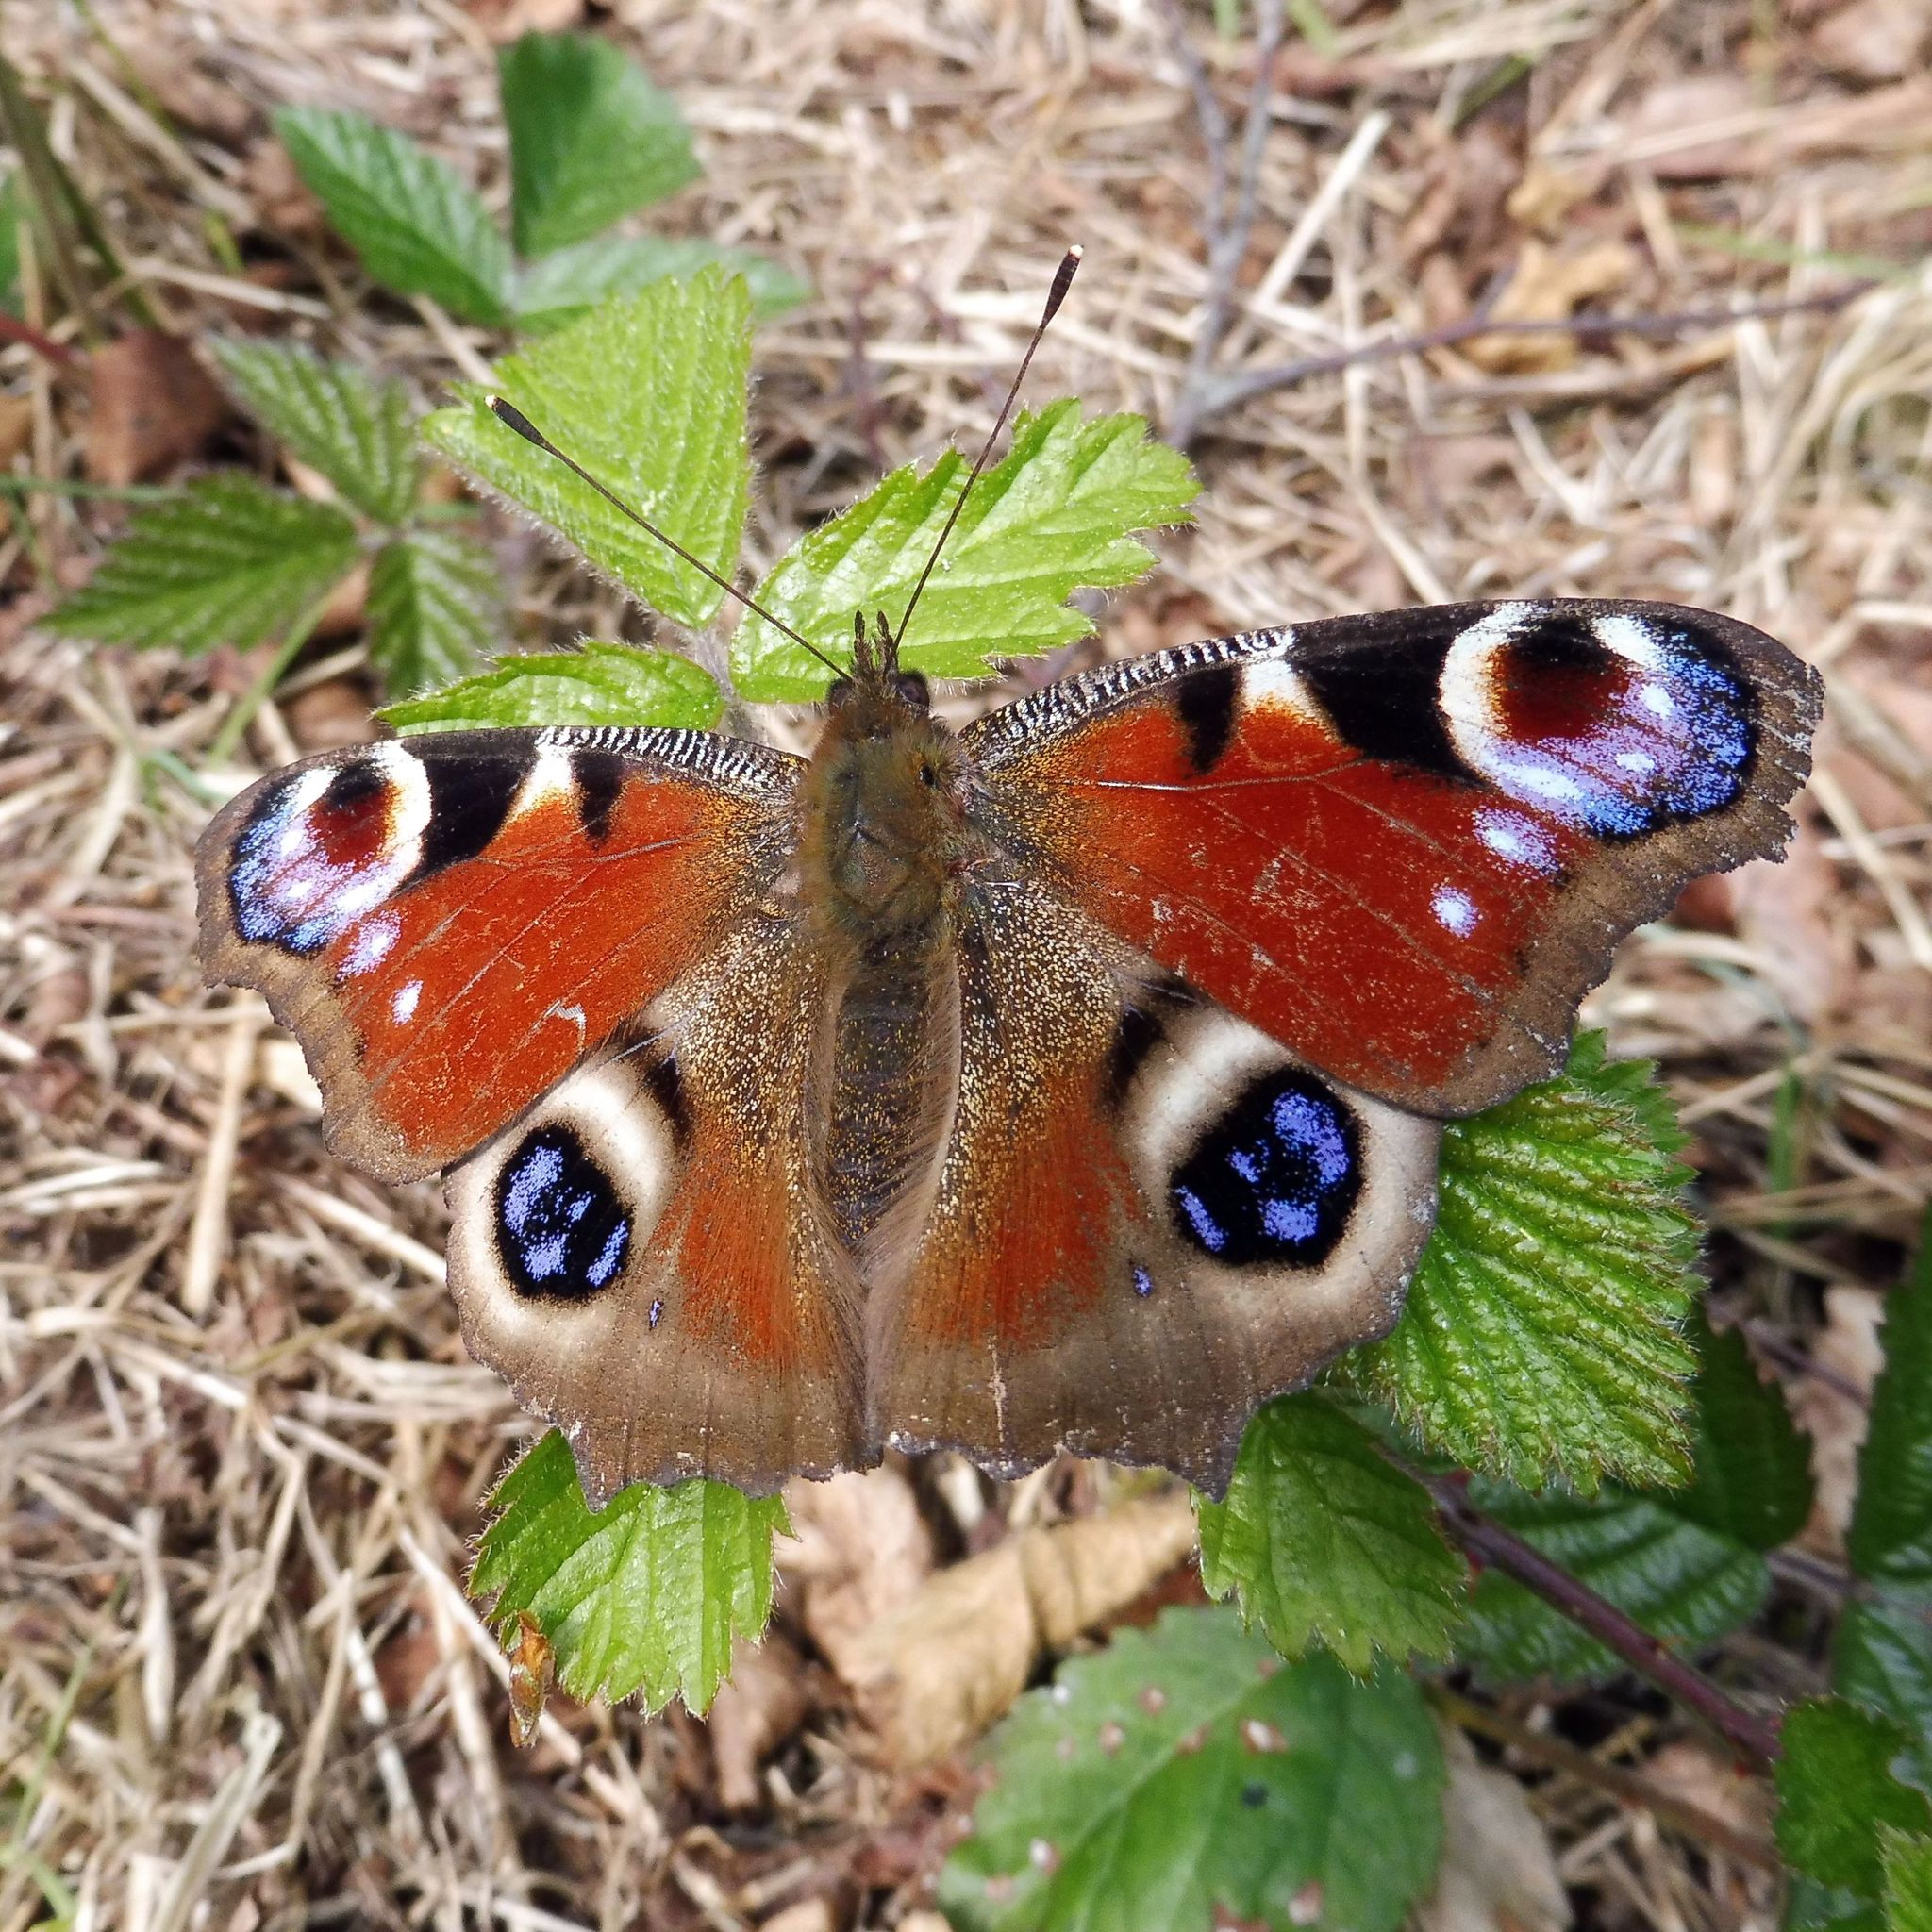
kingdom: Animalia
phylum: Arthropoda
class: Insecta
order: Lepidoptera
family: Nymphalidae
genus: Aglais
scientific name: Aglais io
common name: Peacock
